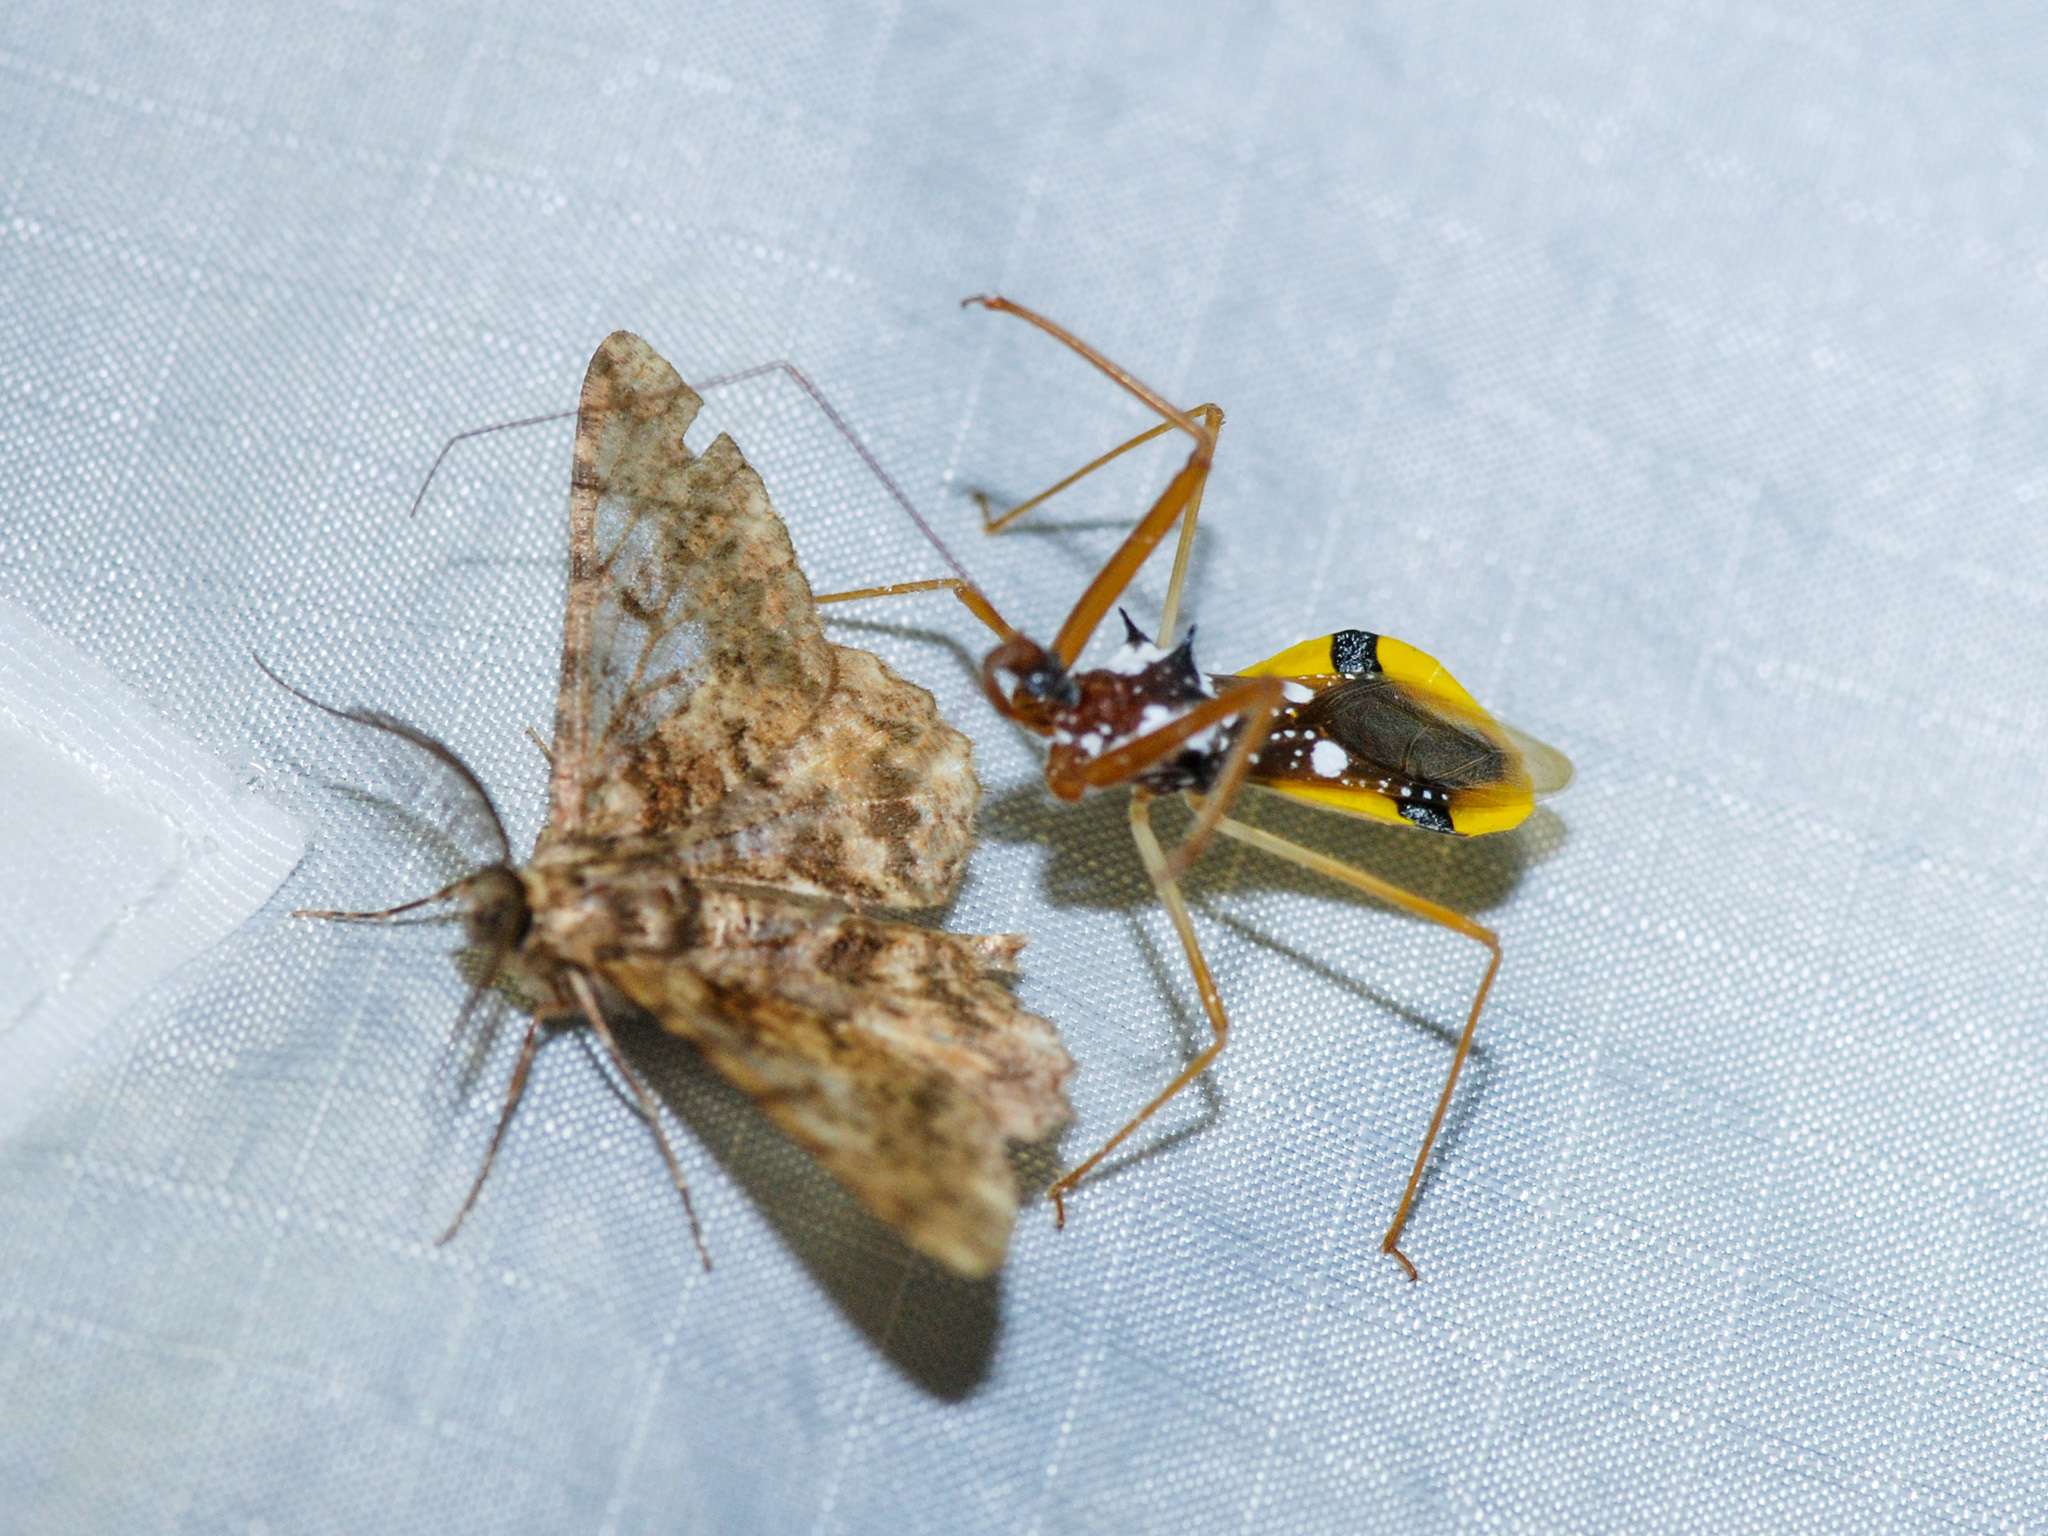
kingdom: Animalia
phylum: Arthropoda
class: Insecta
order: Hemiptera
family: Reduviidae
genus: Epidaus
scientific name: Epidaus famulus
